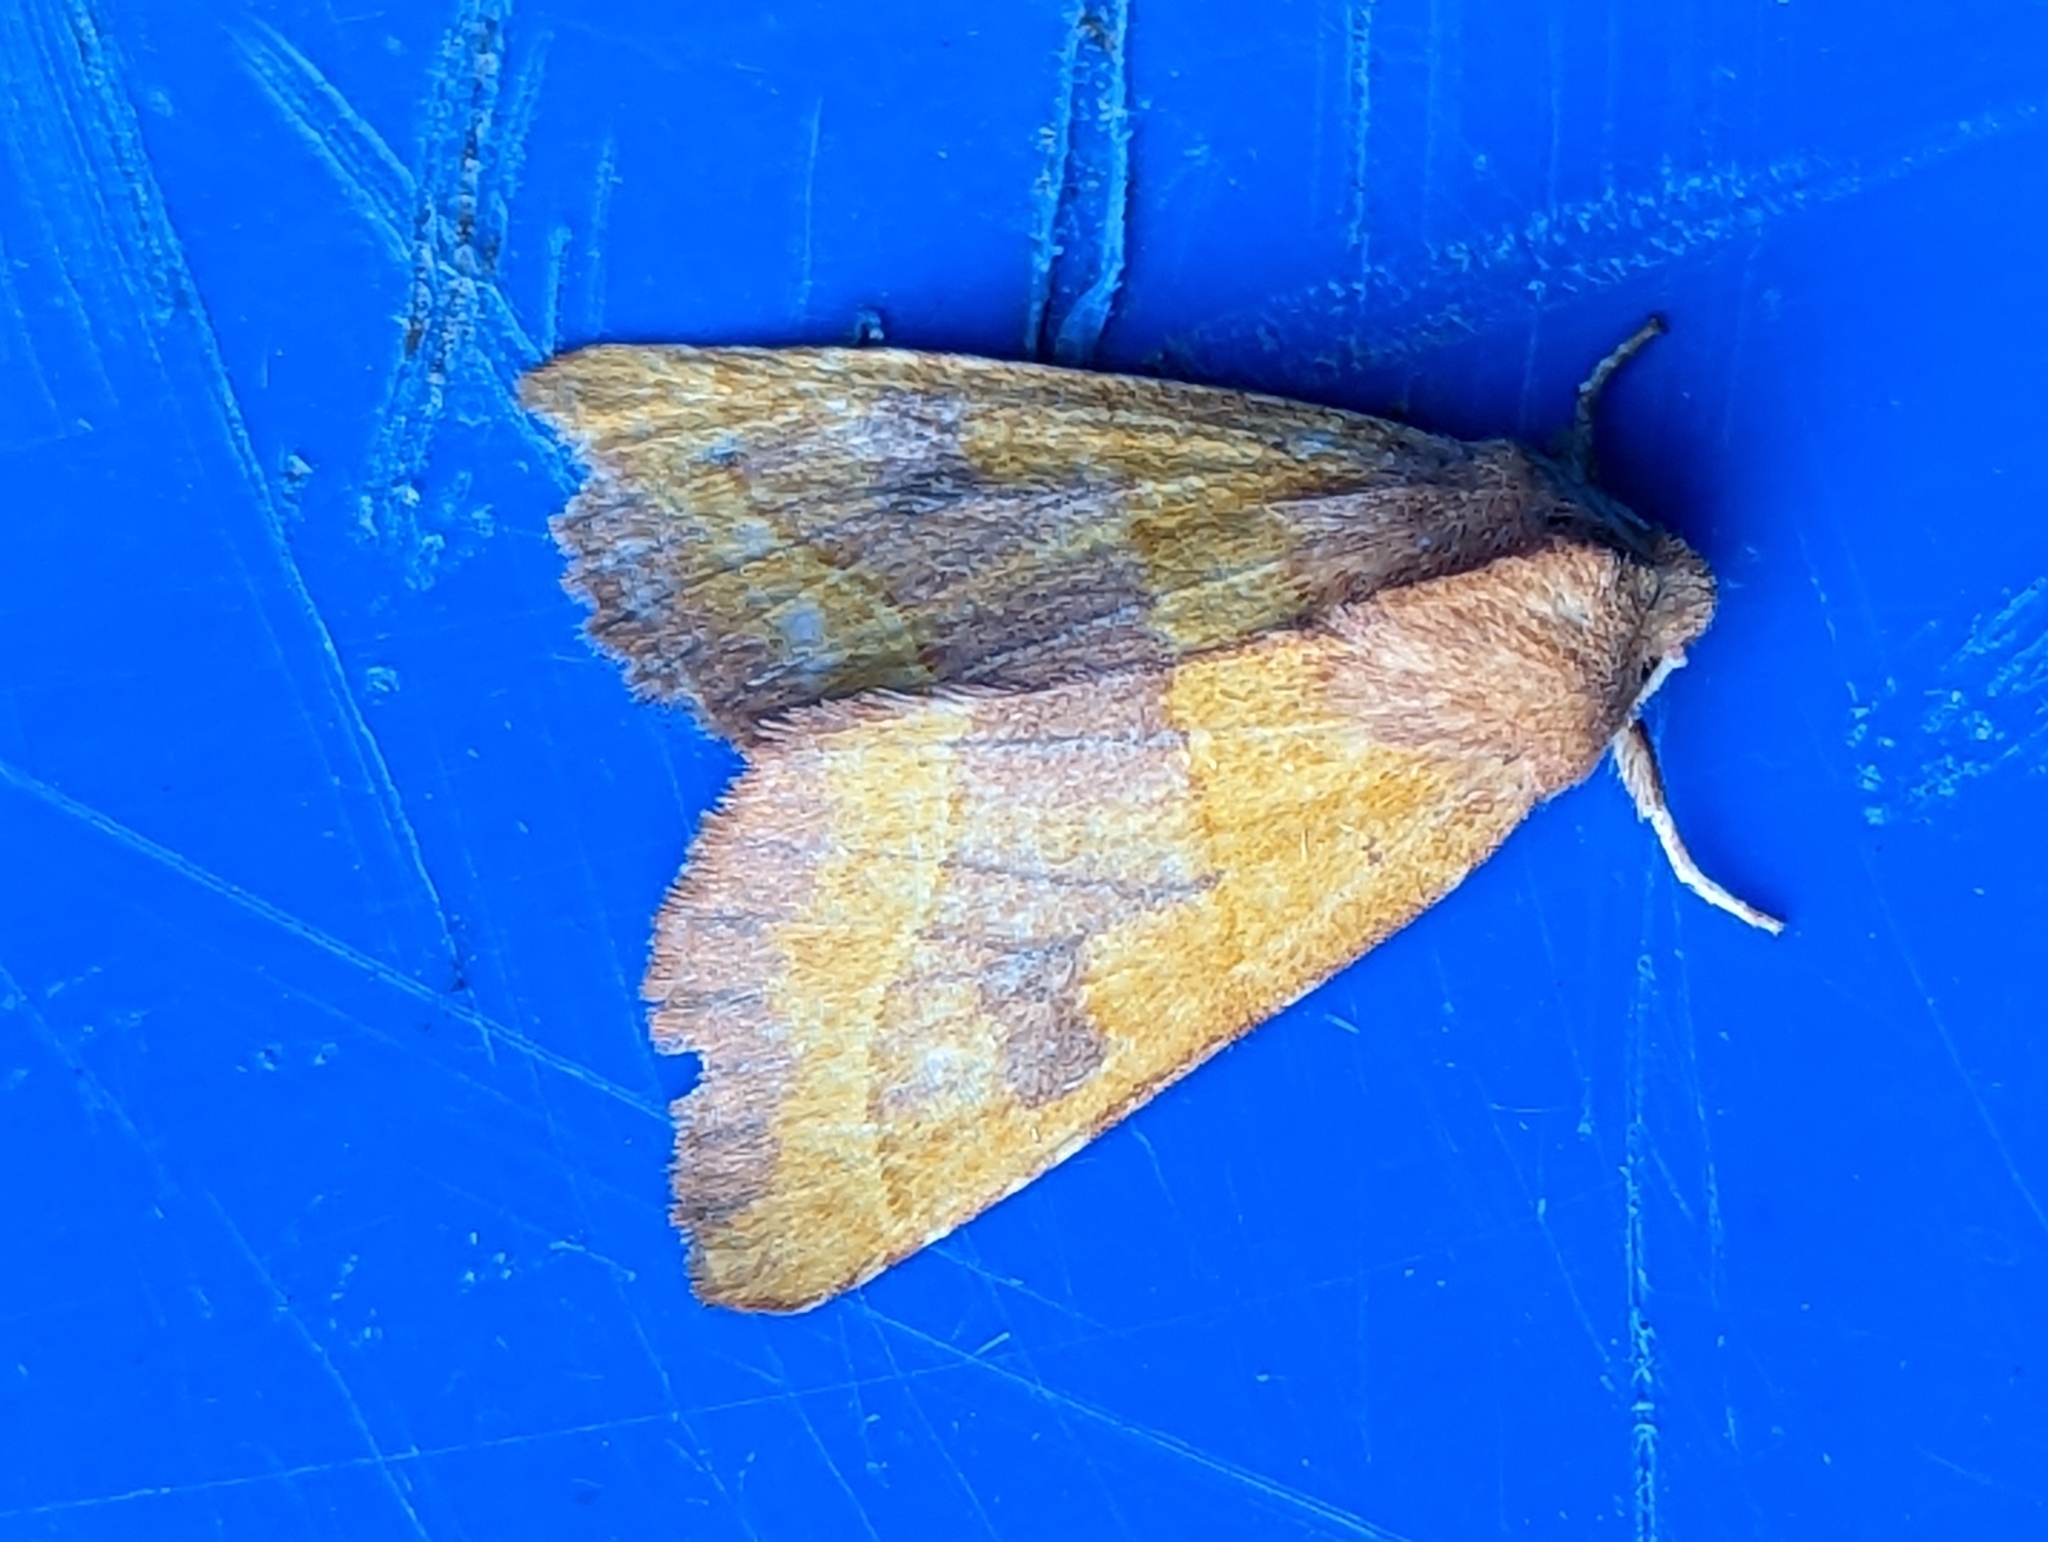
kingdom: Animalia
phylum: Arthropoda
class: Insecta
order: Lepidoptera
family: Noctuidae
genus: Atethmia
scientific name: Atethmia centrago
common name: Centre-barred sallow
